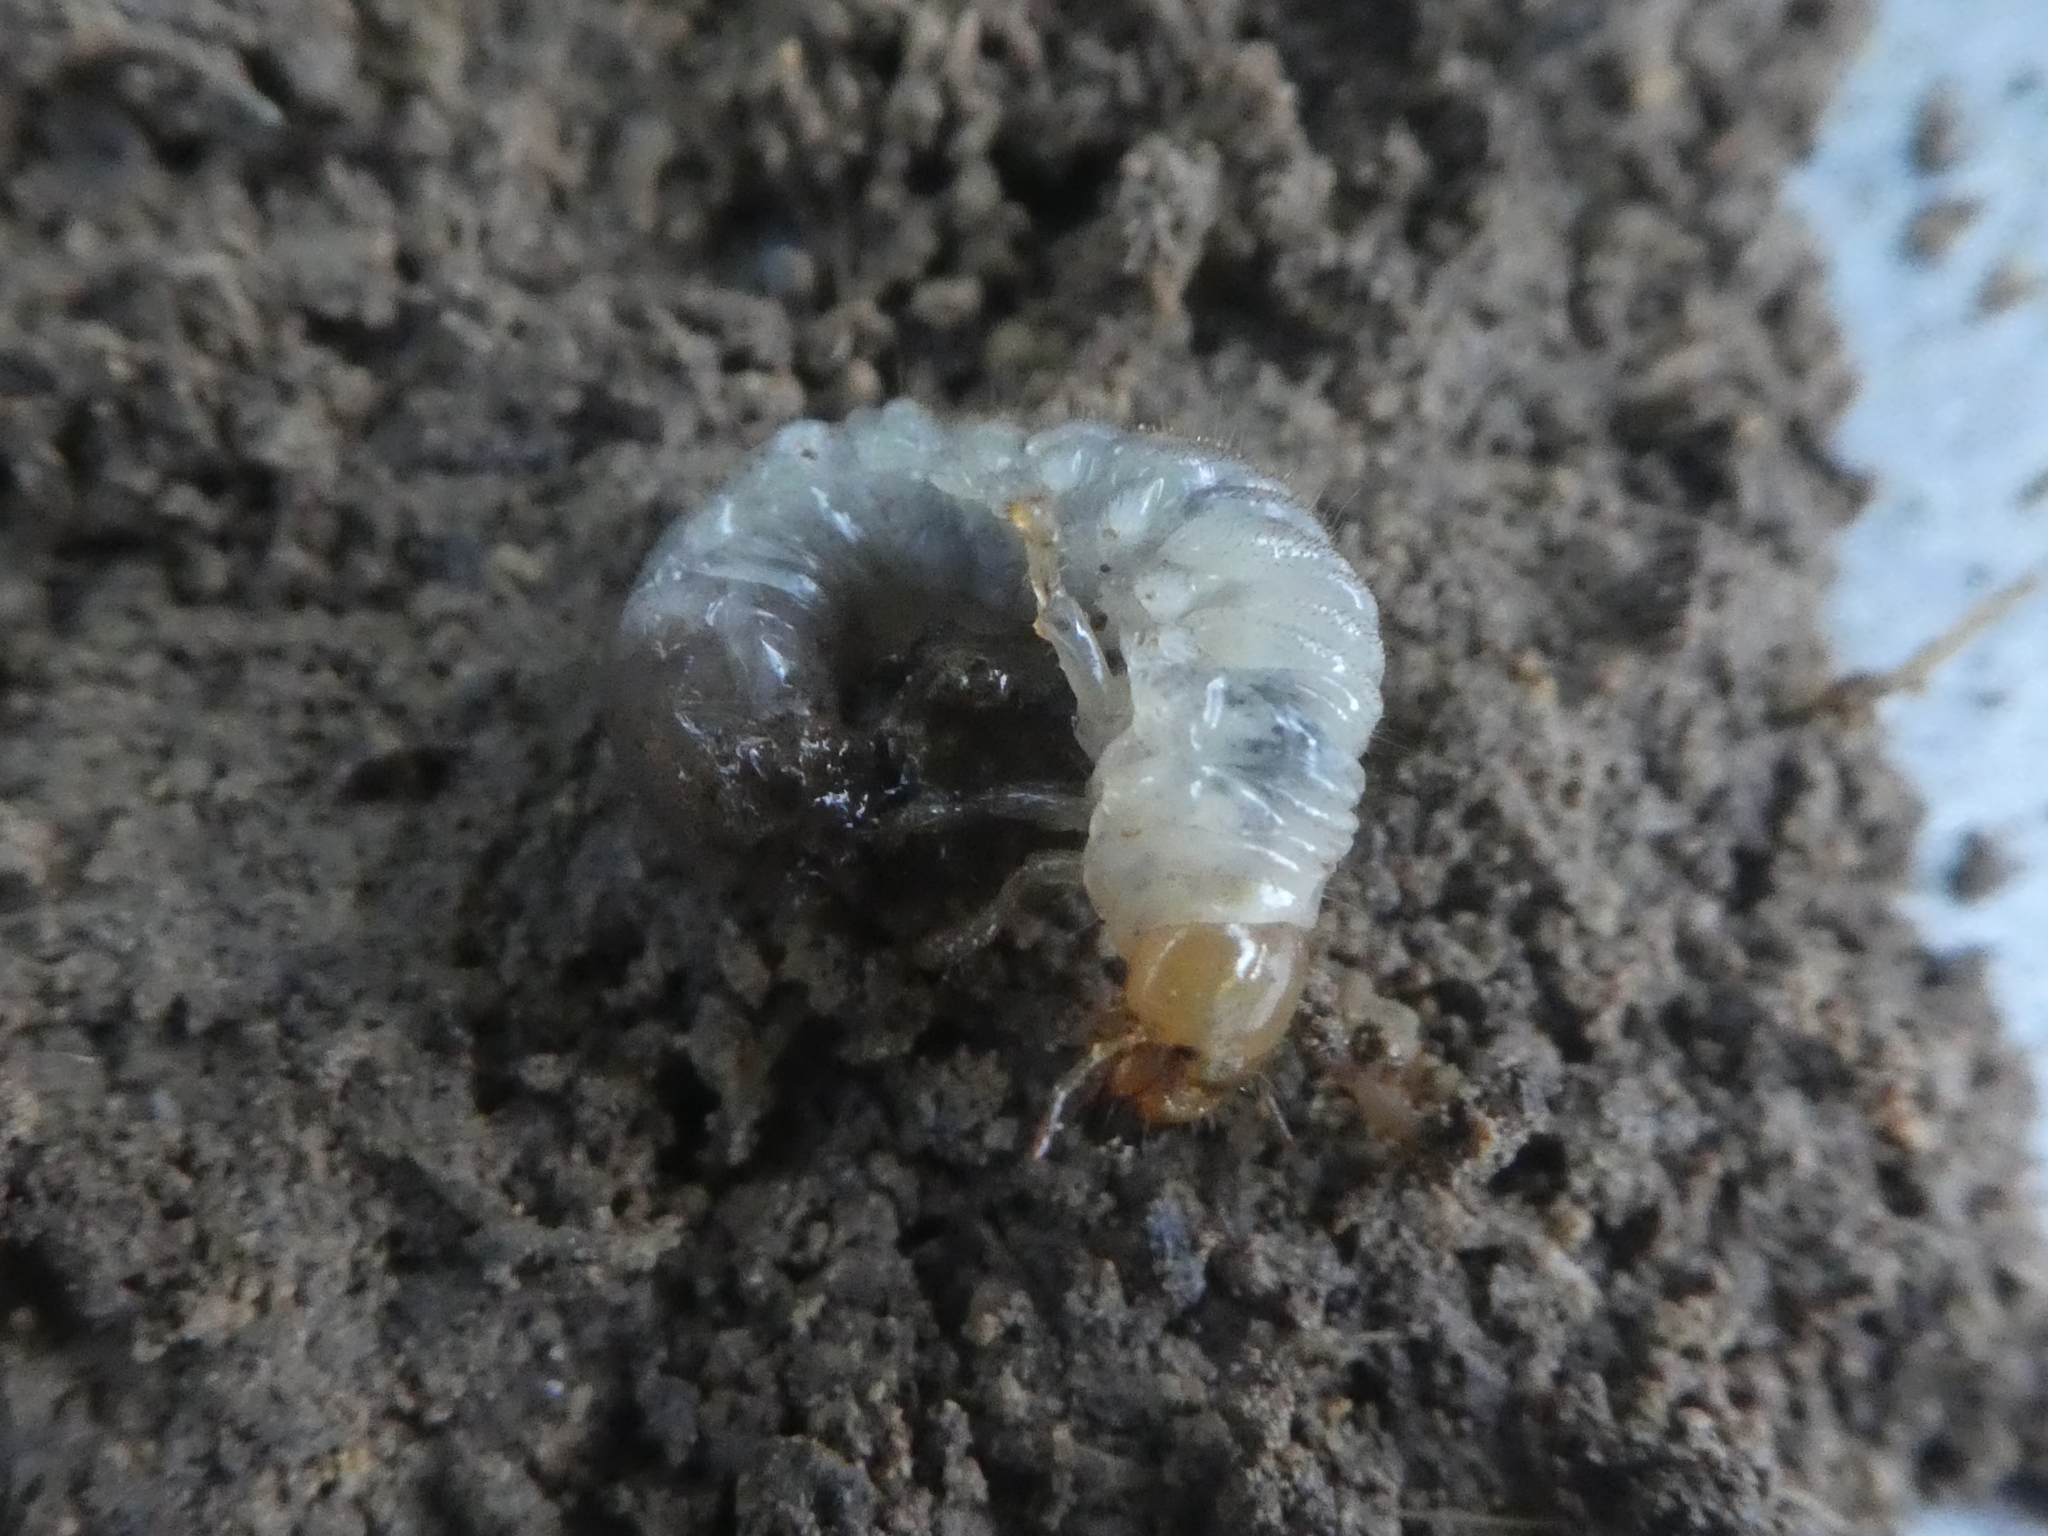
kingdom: Animalia
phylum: Arthropoda
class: Insecta
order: Coleoptera
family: Scarabaeidae
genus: Costelytra
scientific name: Costelytra zealandica
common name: New zealand grass grub
